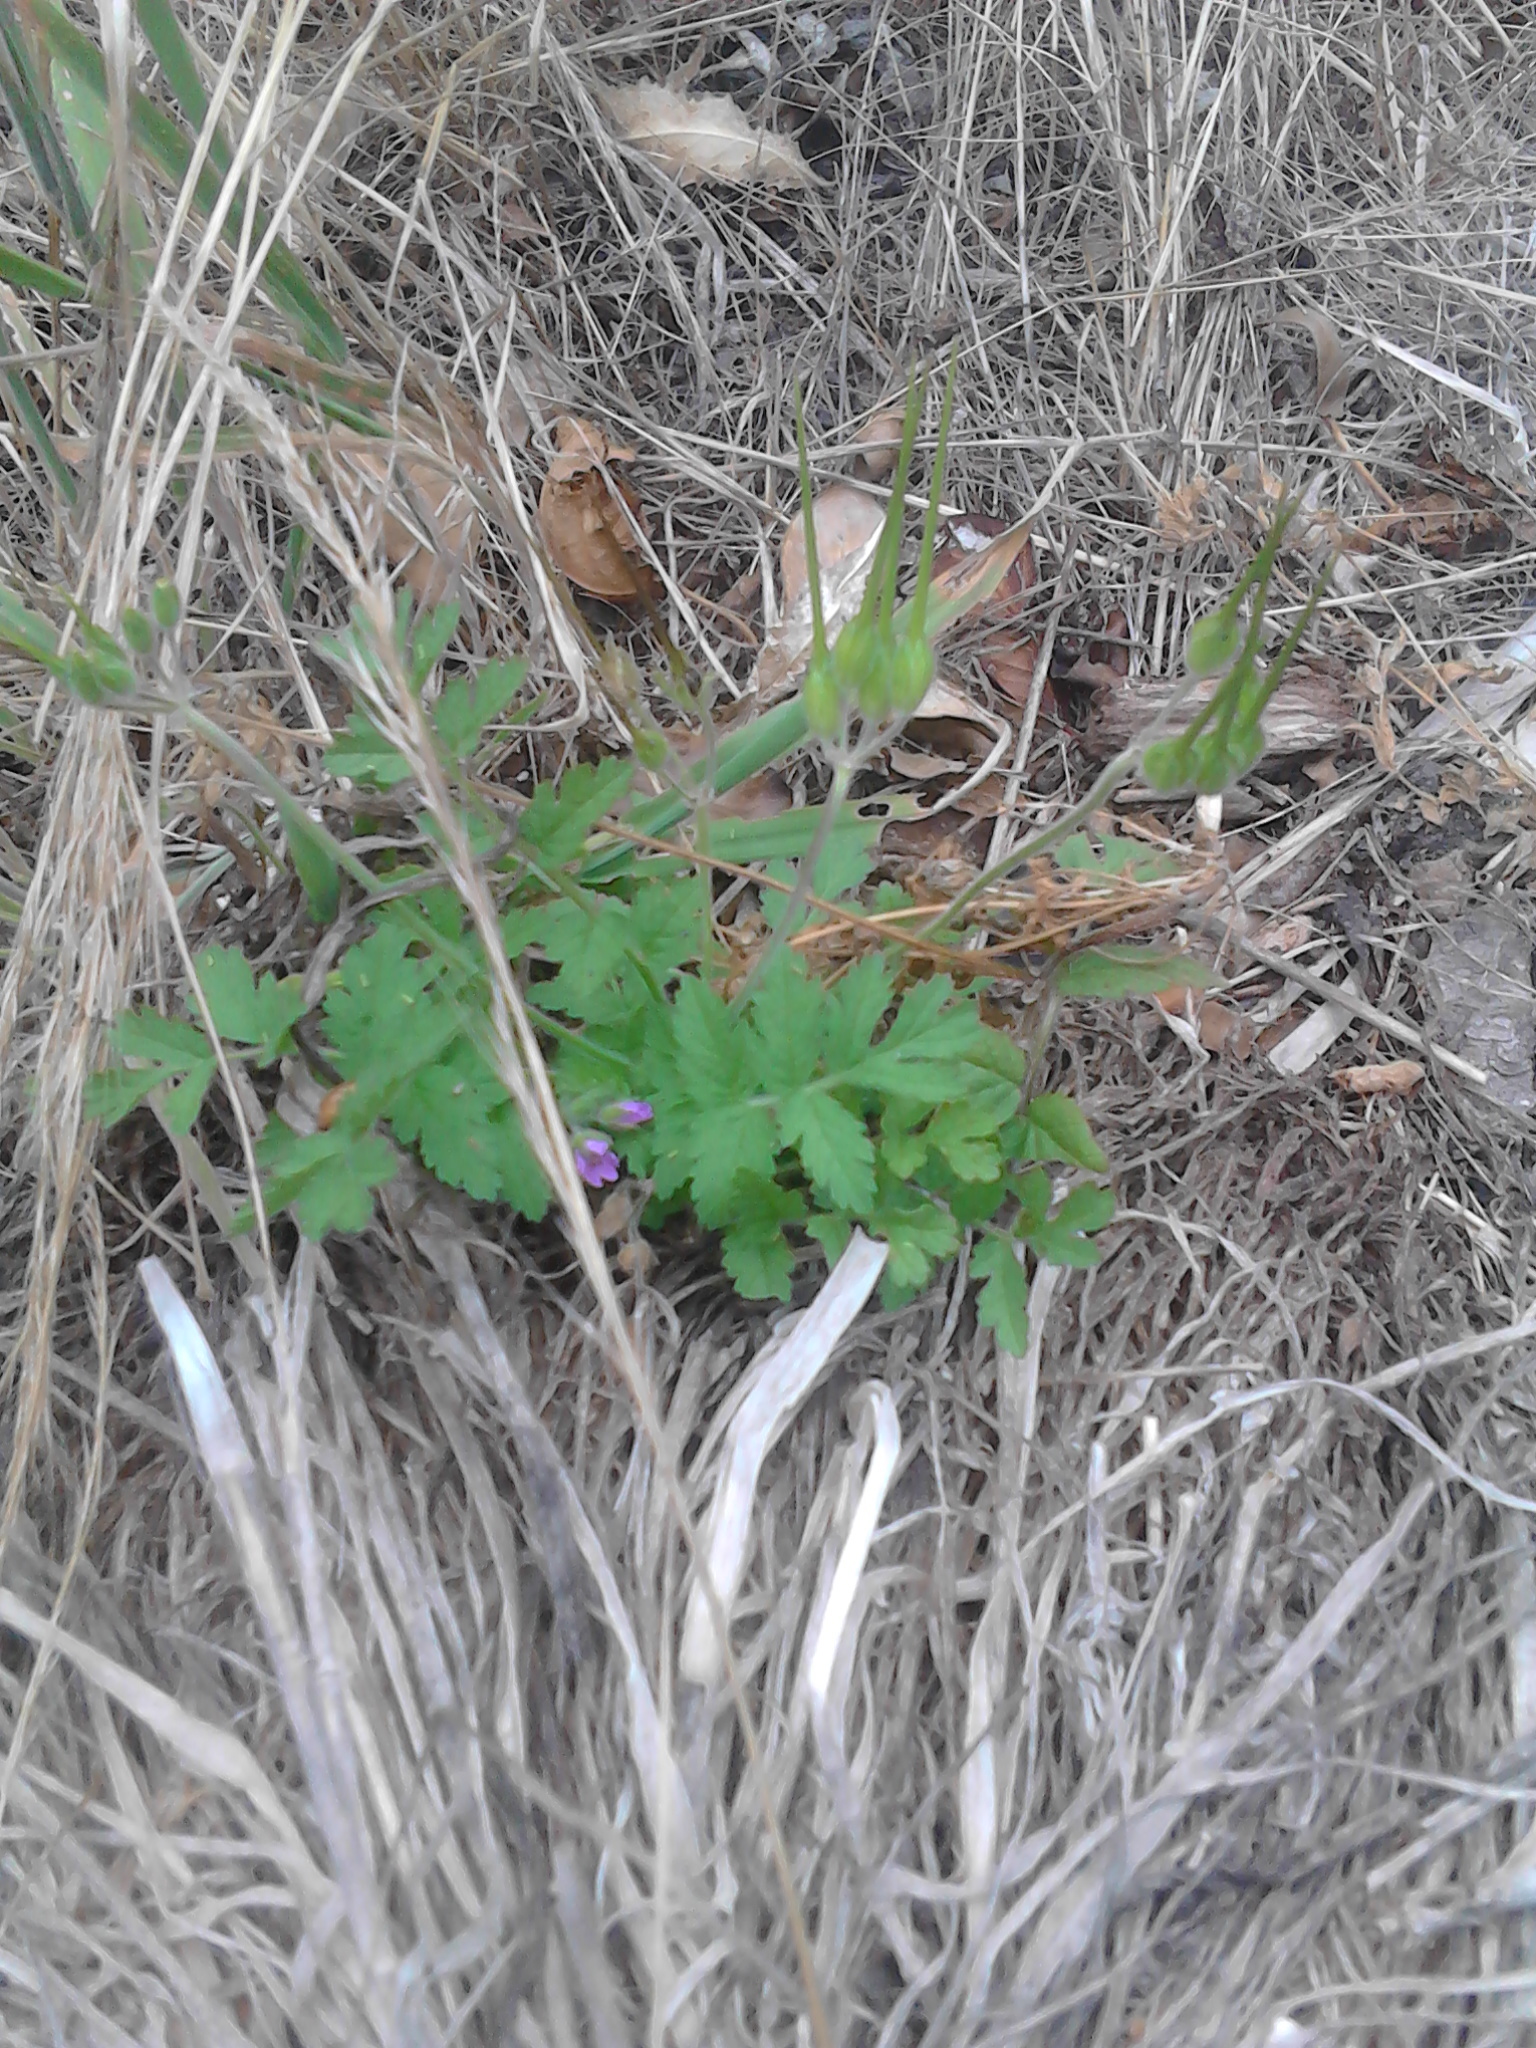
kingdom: Plantae
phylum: Tracheophyta
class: Magnoliopsida
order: Geraniales
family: Geraniaceae
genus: Erodium
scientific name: Erodium moschatum
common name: Musk stork's-bill
